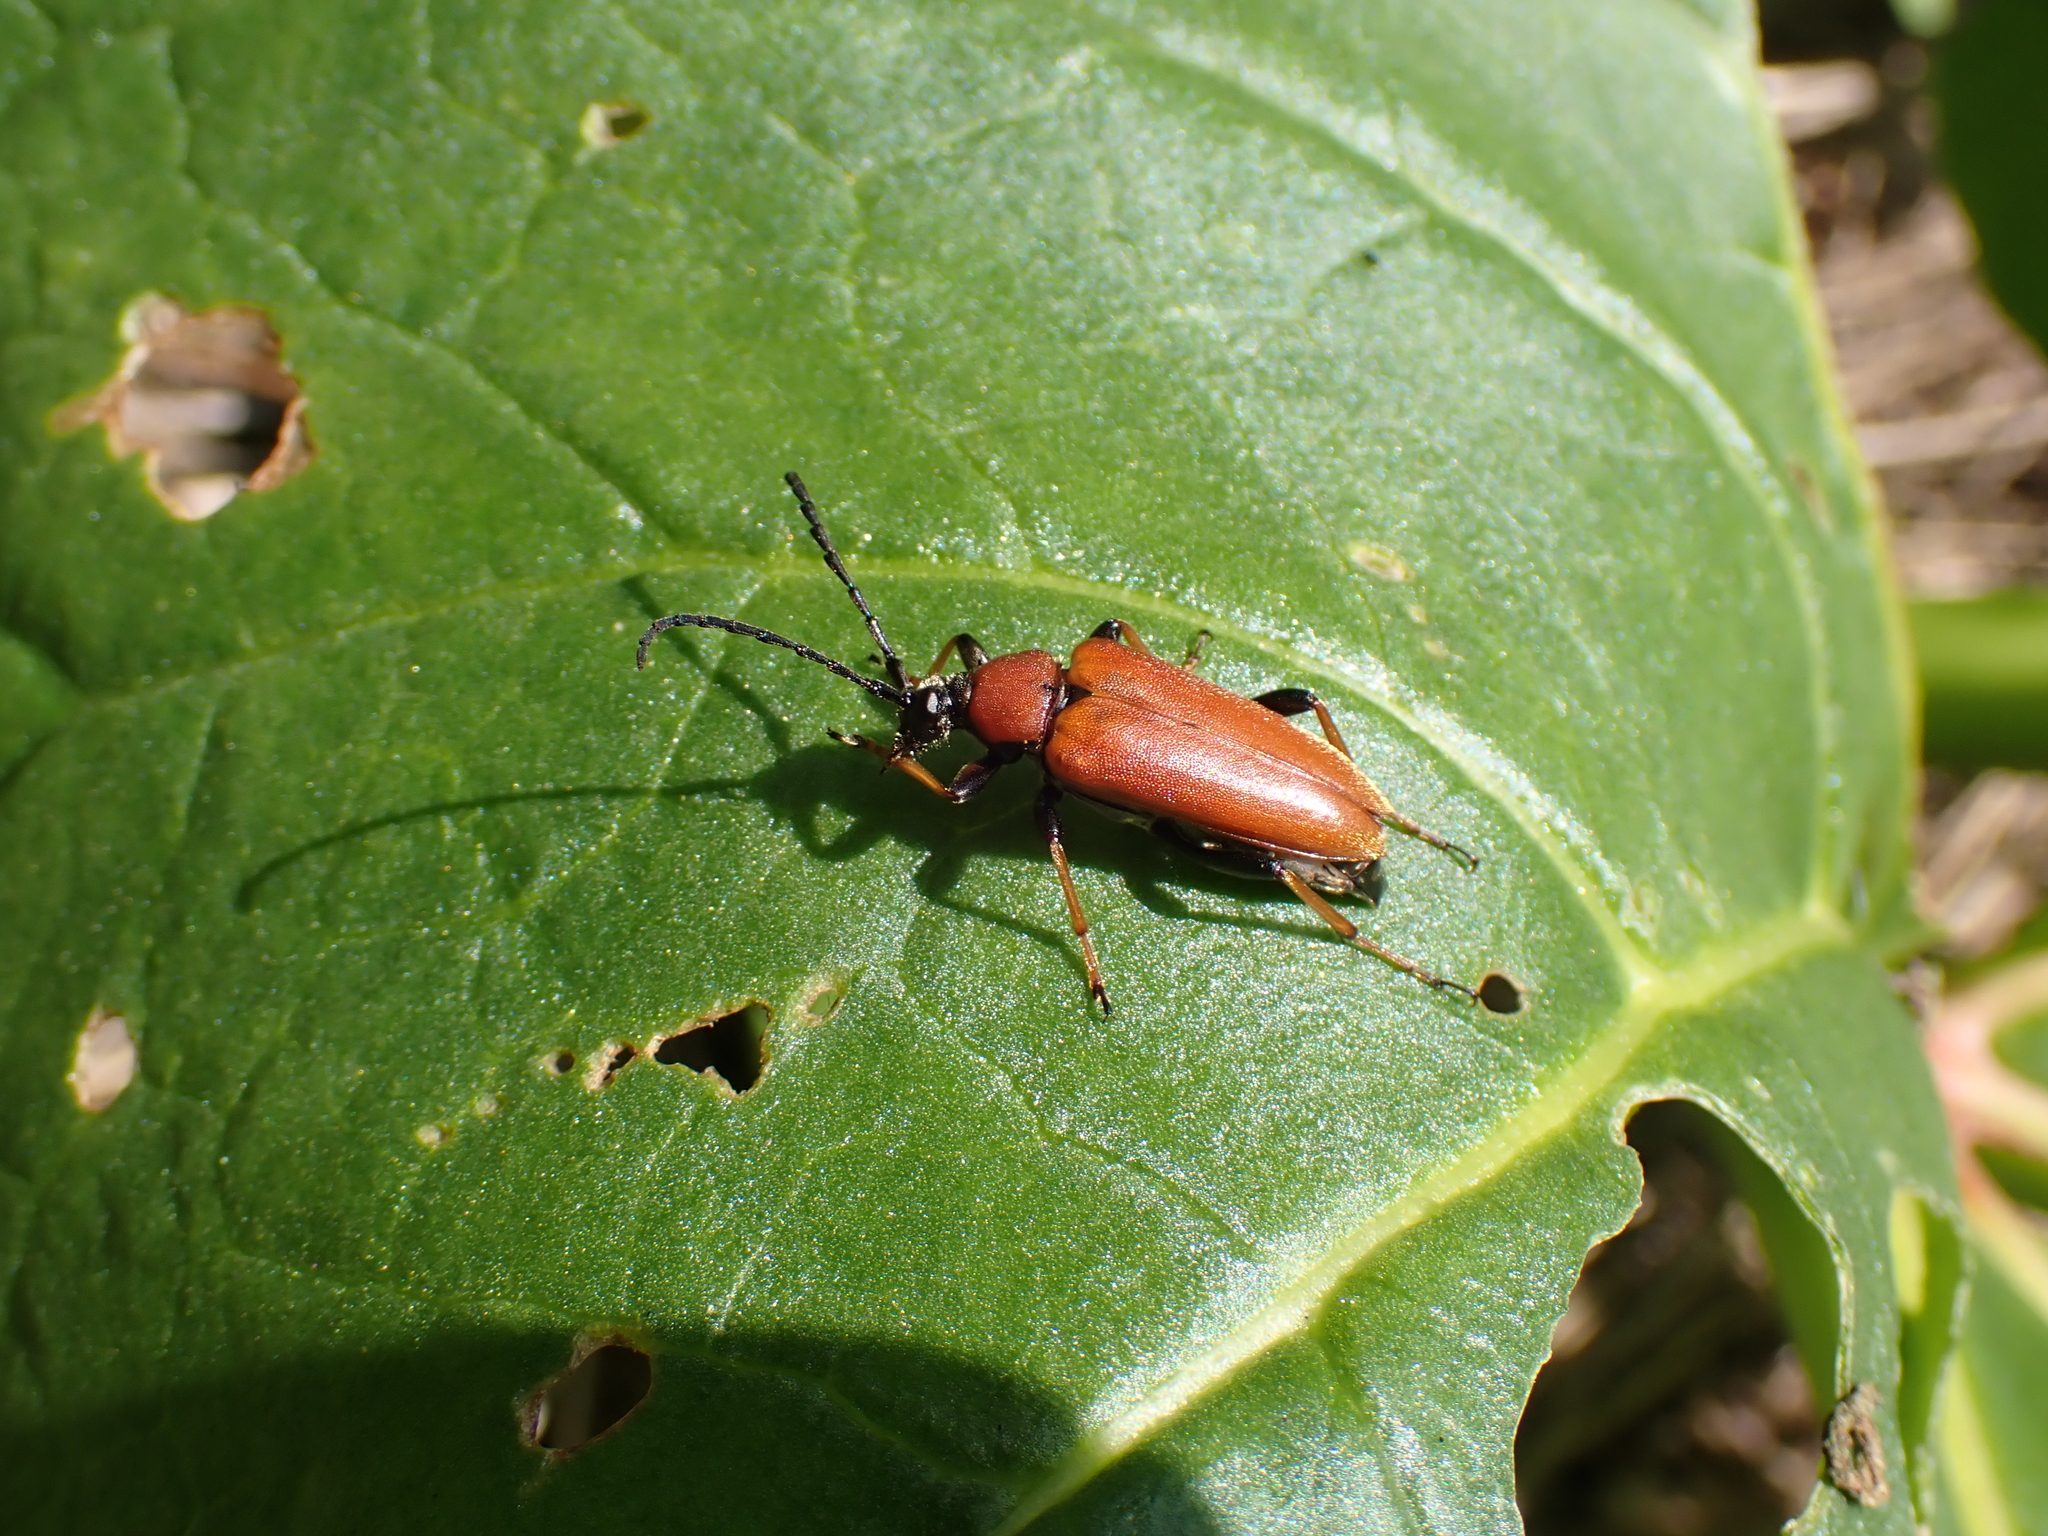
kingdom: Animalia
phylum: Arthropoda
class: Insecta
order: Coleoptera
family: Cerambycidae
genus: Stictoleptura
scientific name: Stictoleptura rubra
